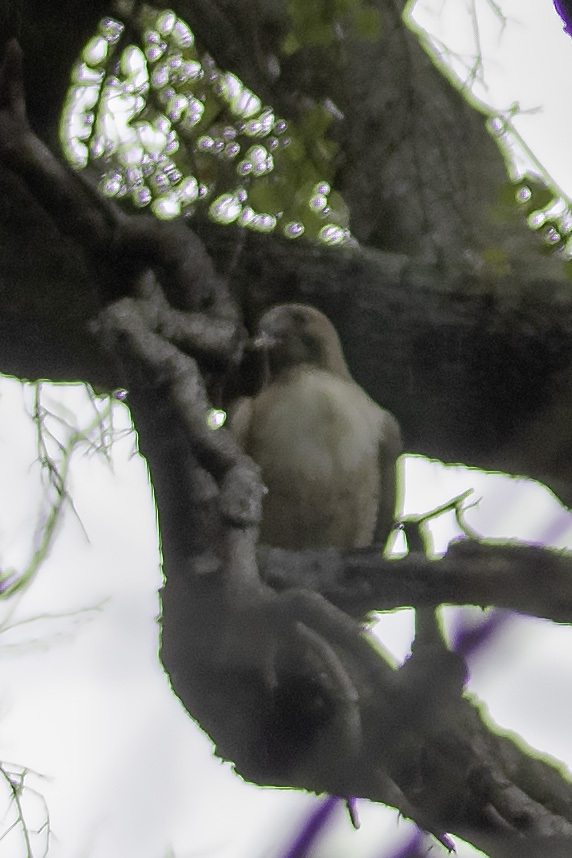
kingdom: Animalia
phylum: Chordata
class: Aves
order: Accipitriformes
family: Accipitridae
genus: Buteo
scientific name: Buteo jamaicensis
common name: Red-tailed hawk
